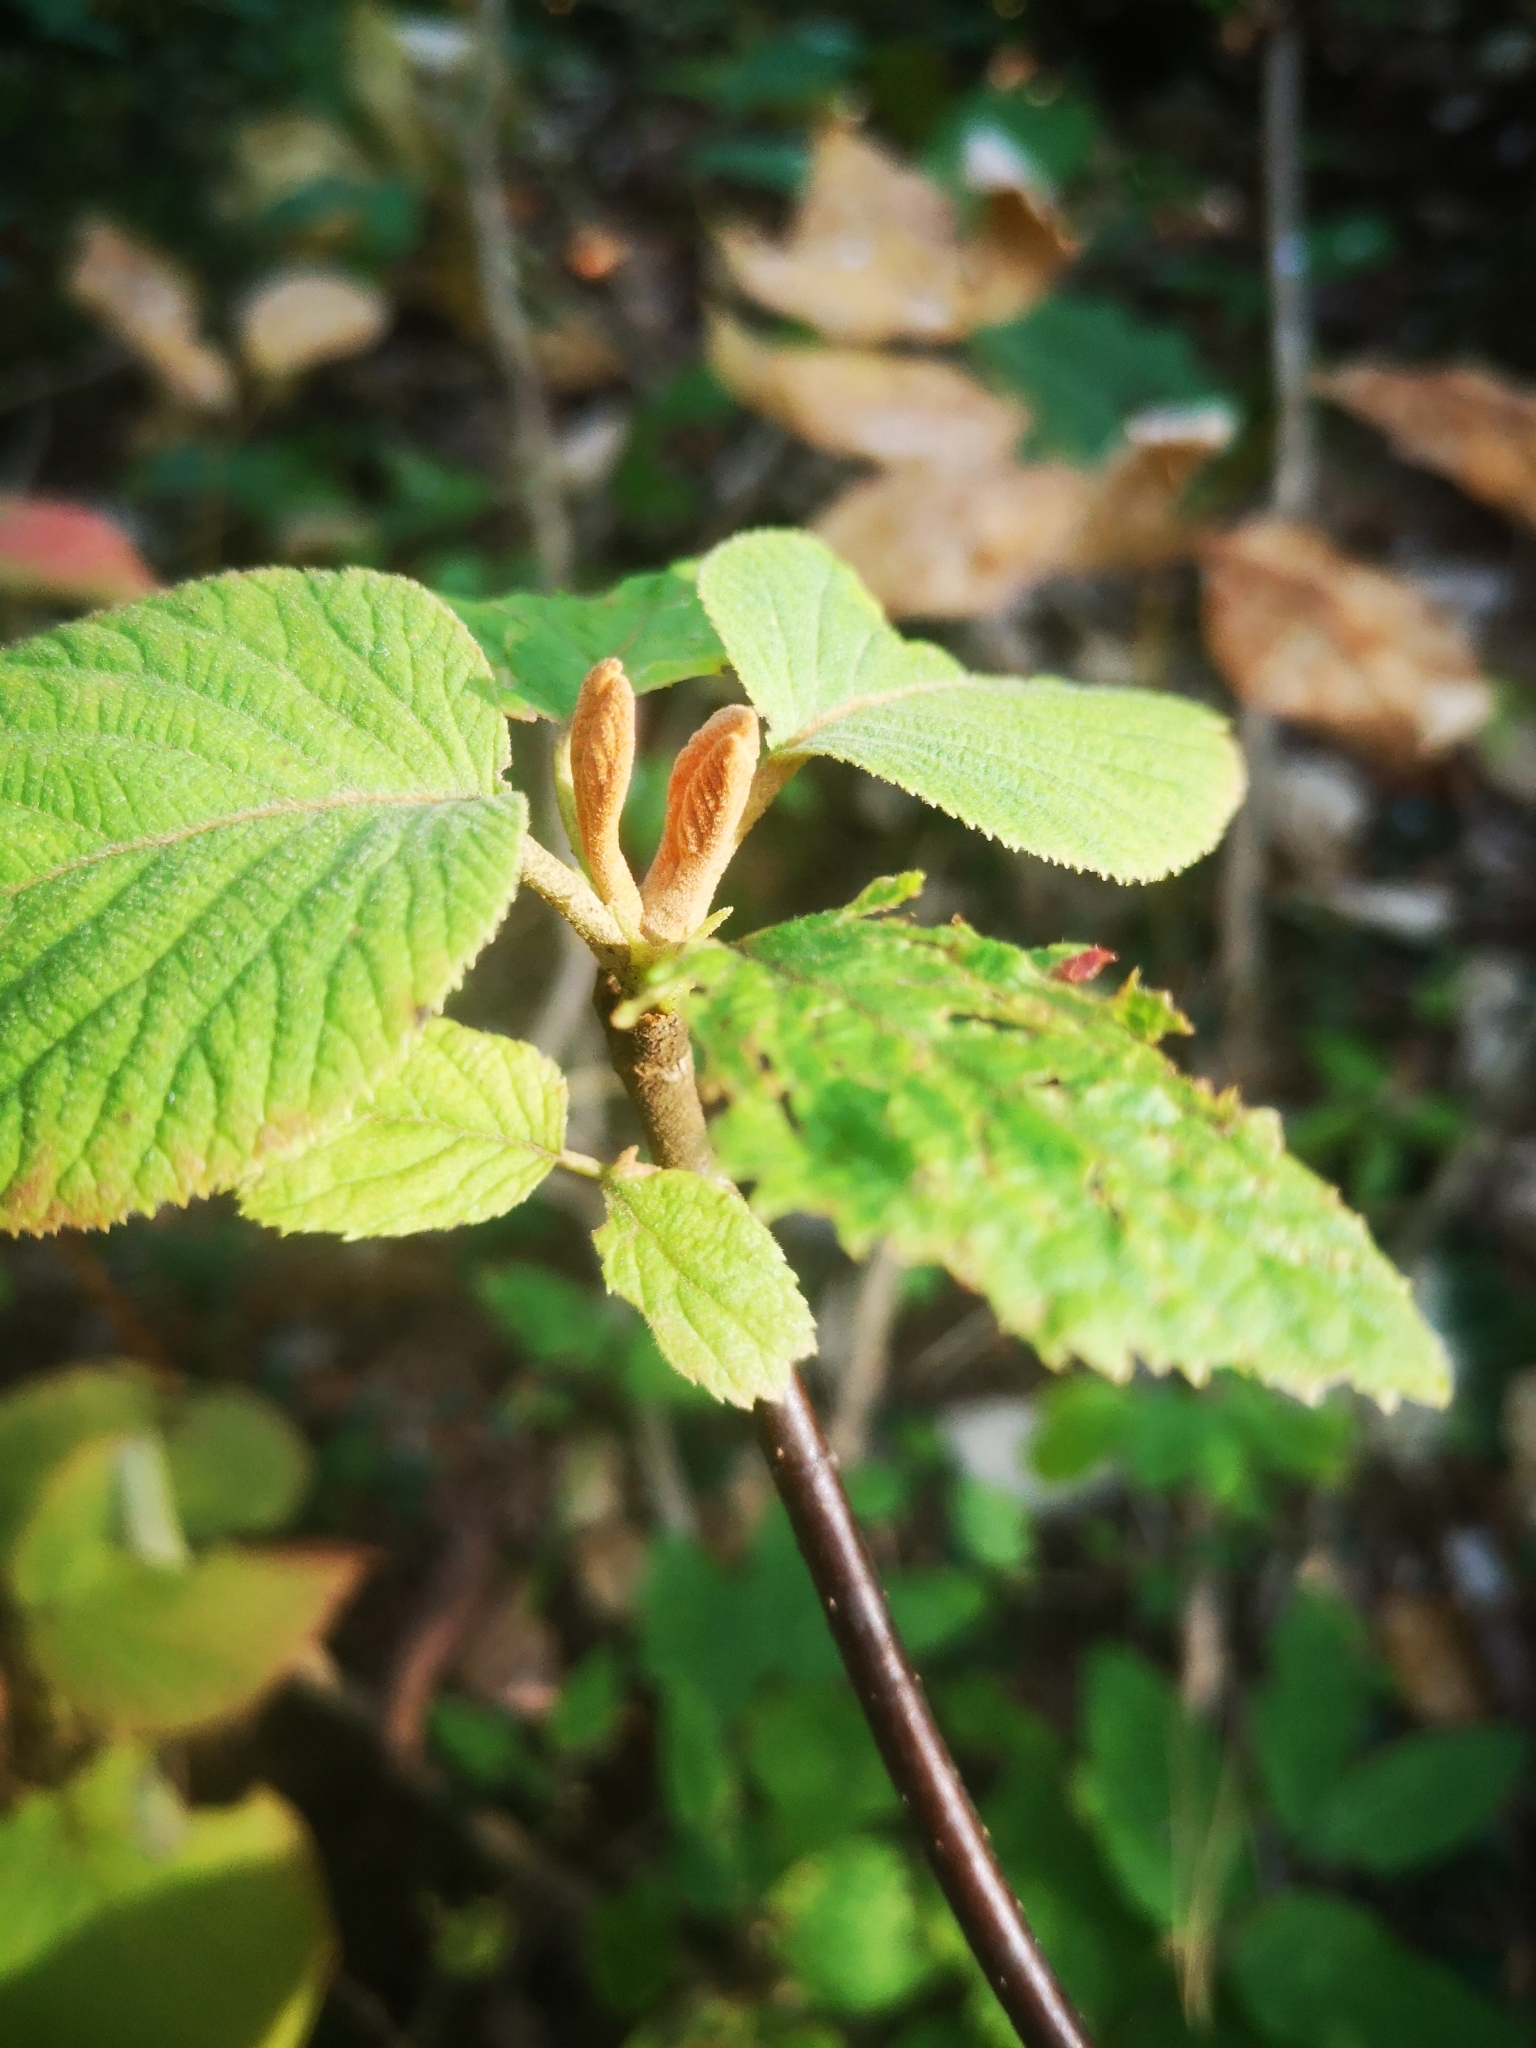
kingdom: Plantae
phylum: Tracheophyta
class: Magnoliopsida
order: Dipsacales
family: Viburnaceae
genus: Viburnum
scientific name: Viburnum lantanoides
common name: Hobblebush
